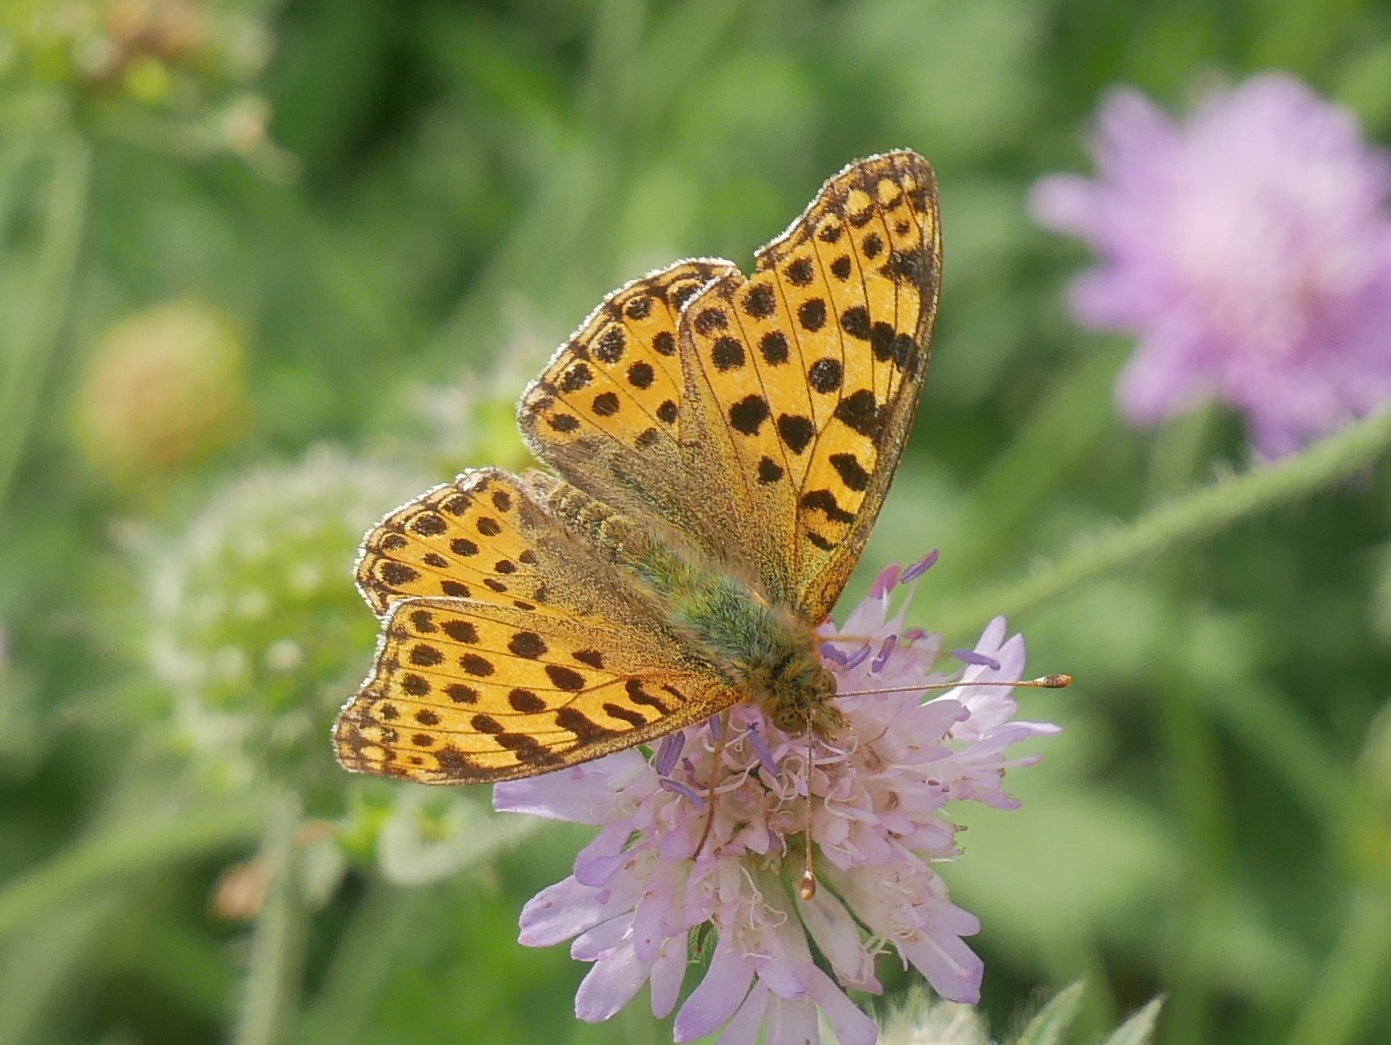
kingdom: Animalia
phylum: Arthropoda
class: Insecta
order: Lepidoptera
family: Nymphalidae
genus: Issoria
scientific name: Issoria lathonia
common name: Queen of spain fritillary
